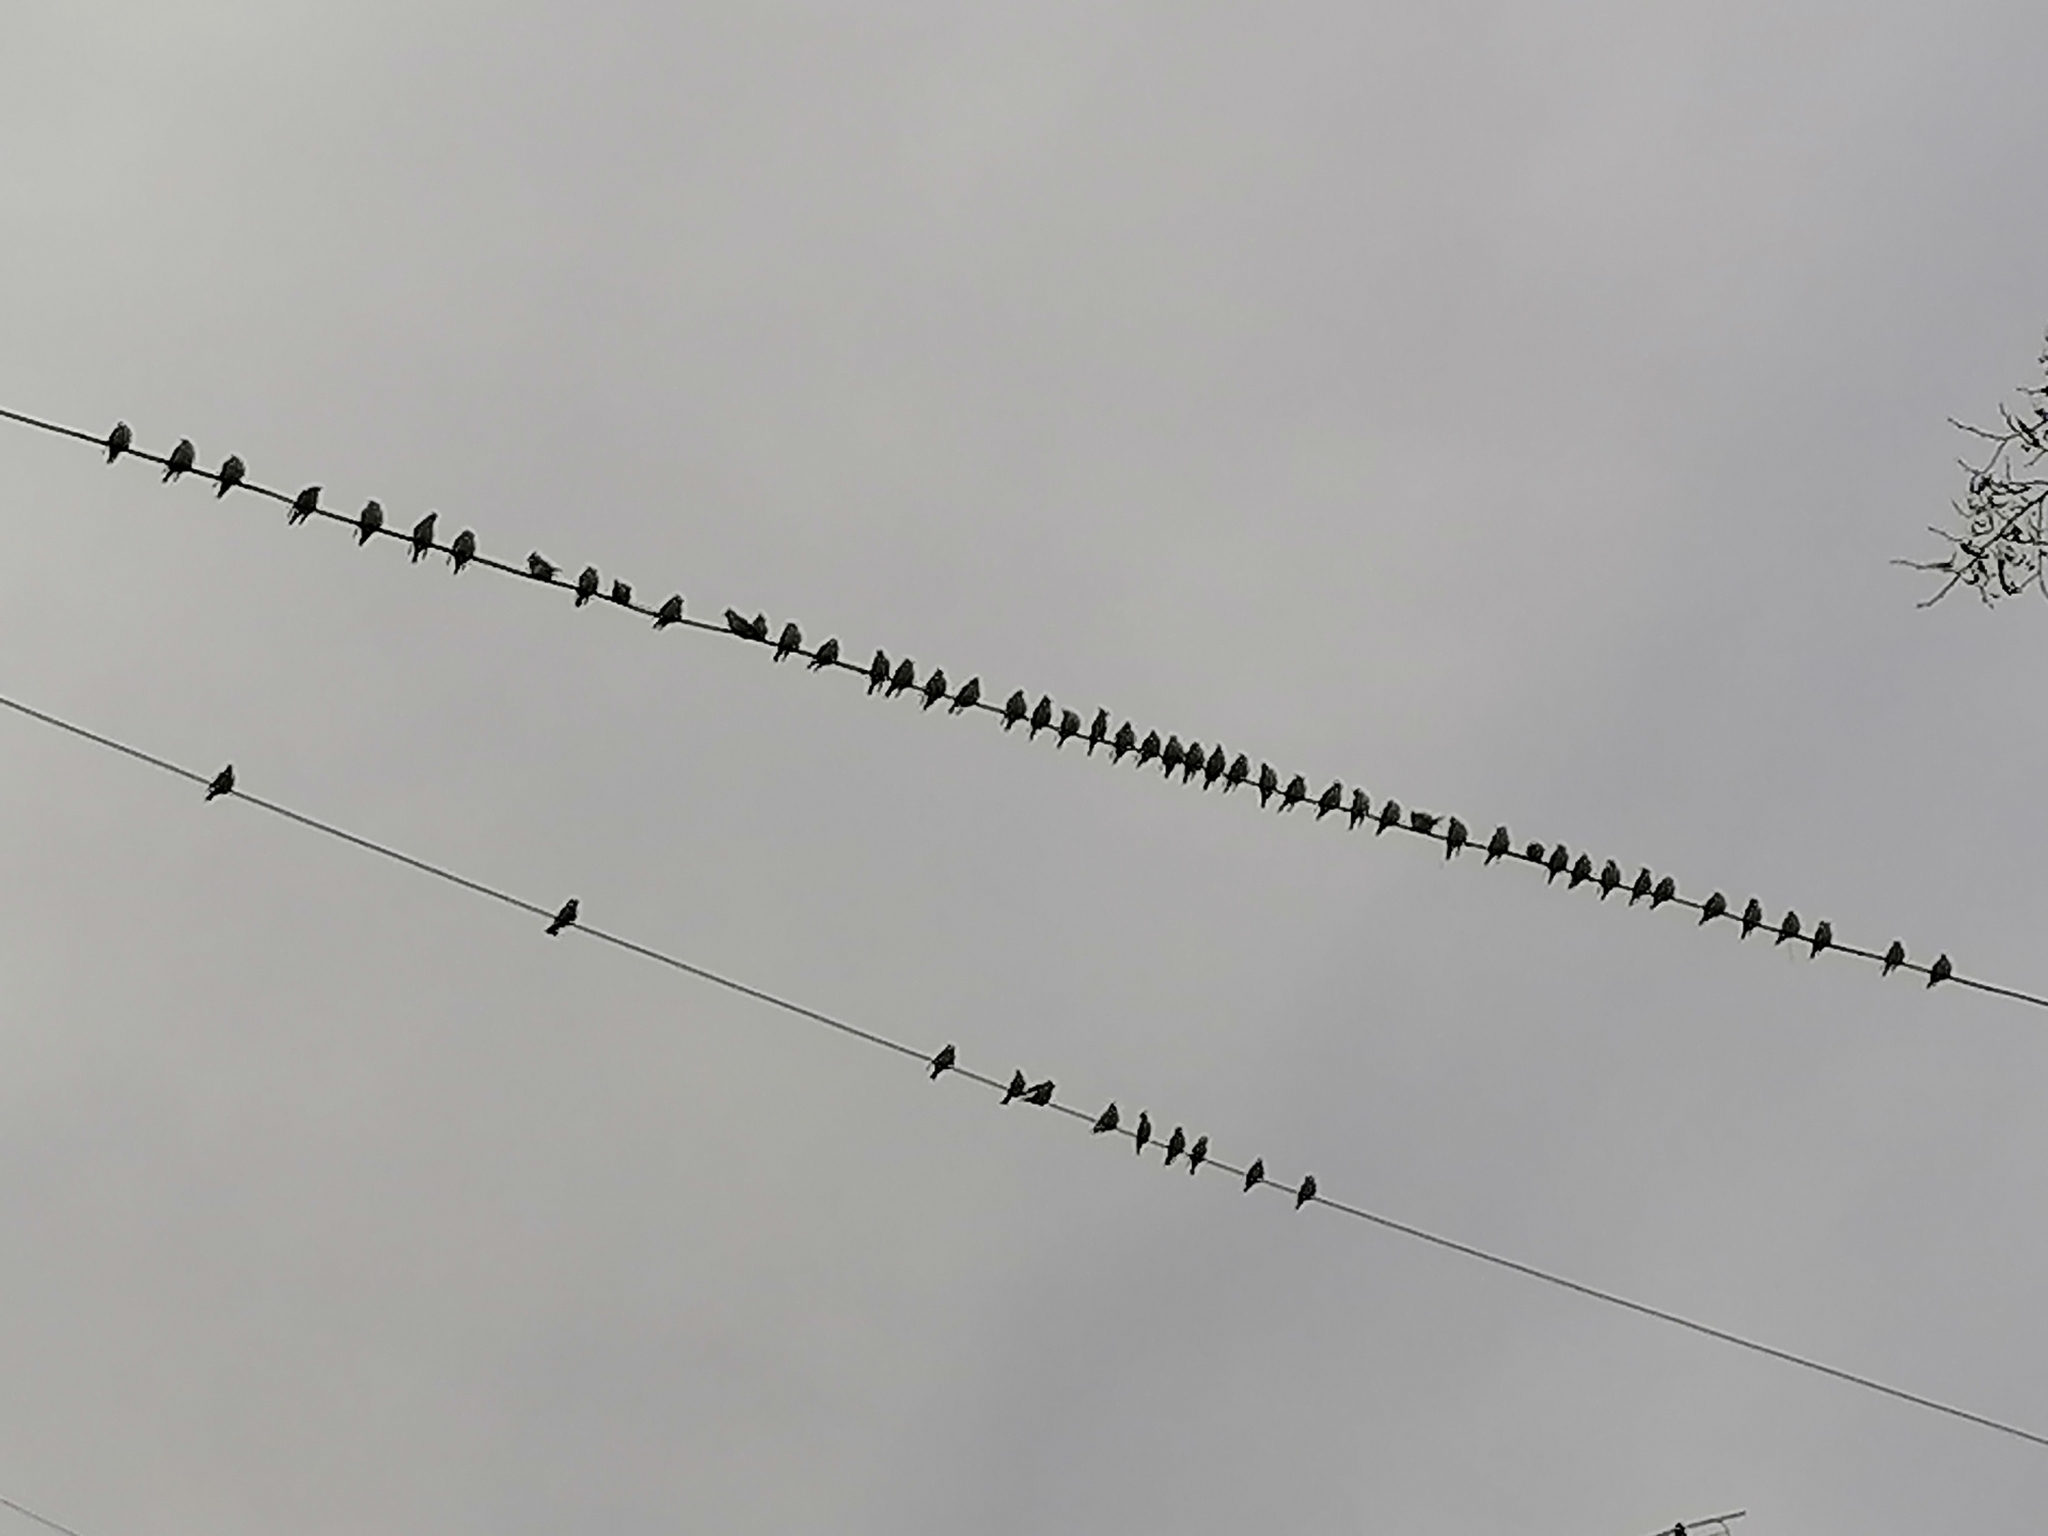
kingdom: Animalia
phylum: Chordata
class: Aves
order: Passeriformes
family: Bombycillidae
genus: Bombycilla
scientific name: Bombycilla garrulus
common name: Bohemian waxwing
